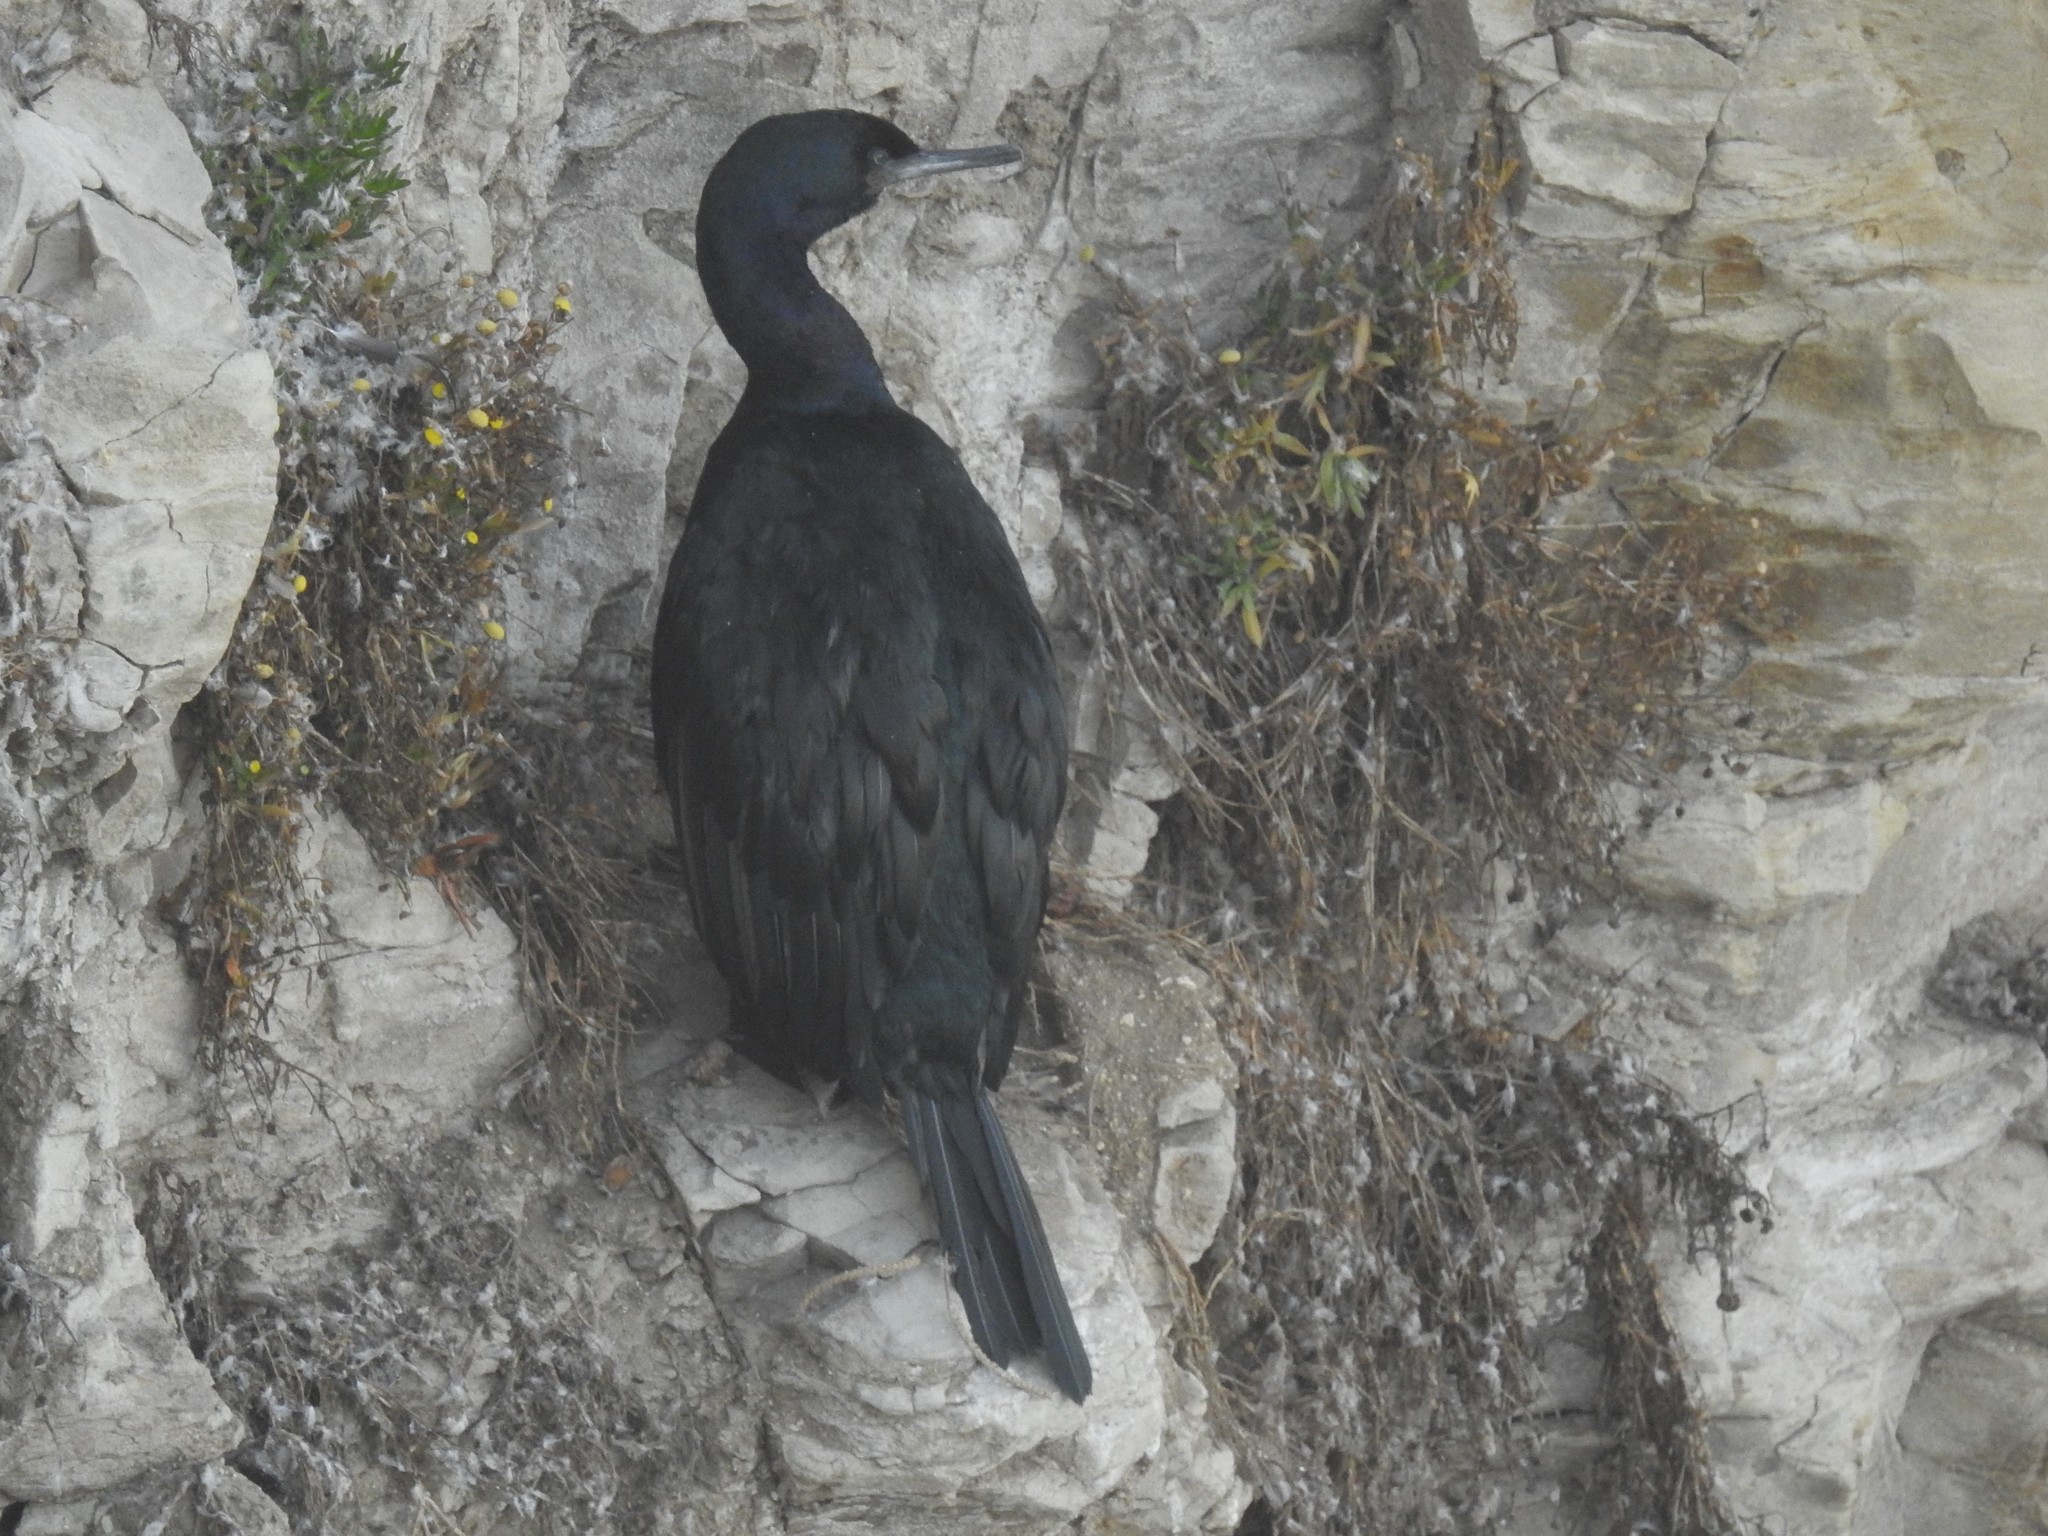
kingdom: Animalia
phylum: Chordata
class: Aves
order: Suliformes
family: Phalacrocoracidae
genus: Phalacrocorax
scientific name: Phalacrocorax pelagicus
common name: Pelagic cormorant
